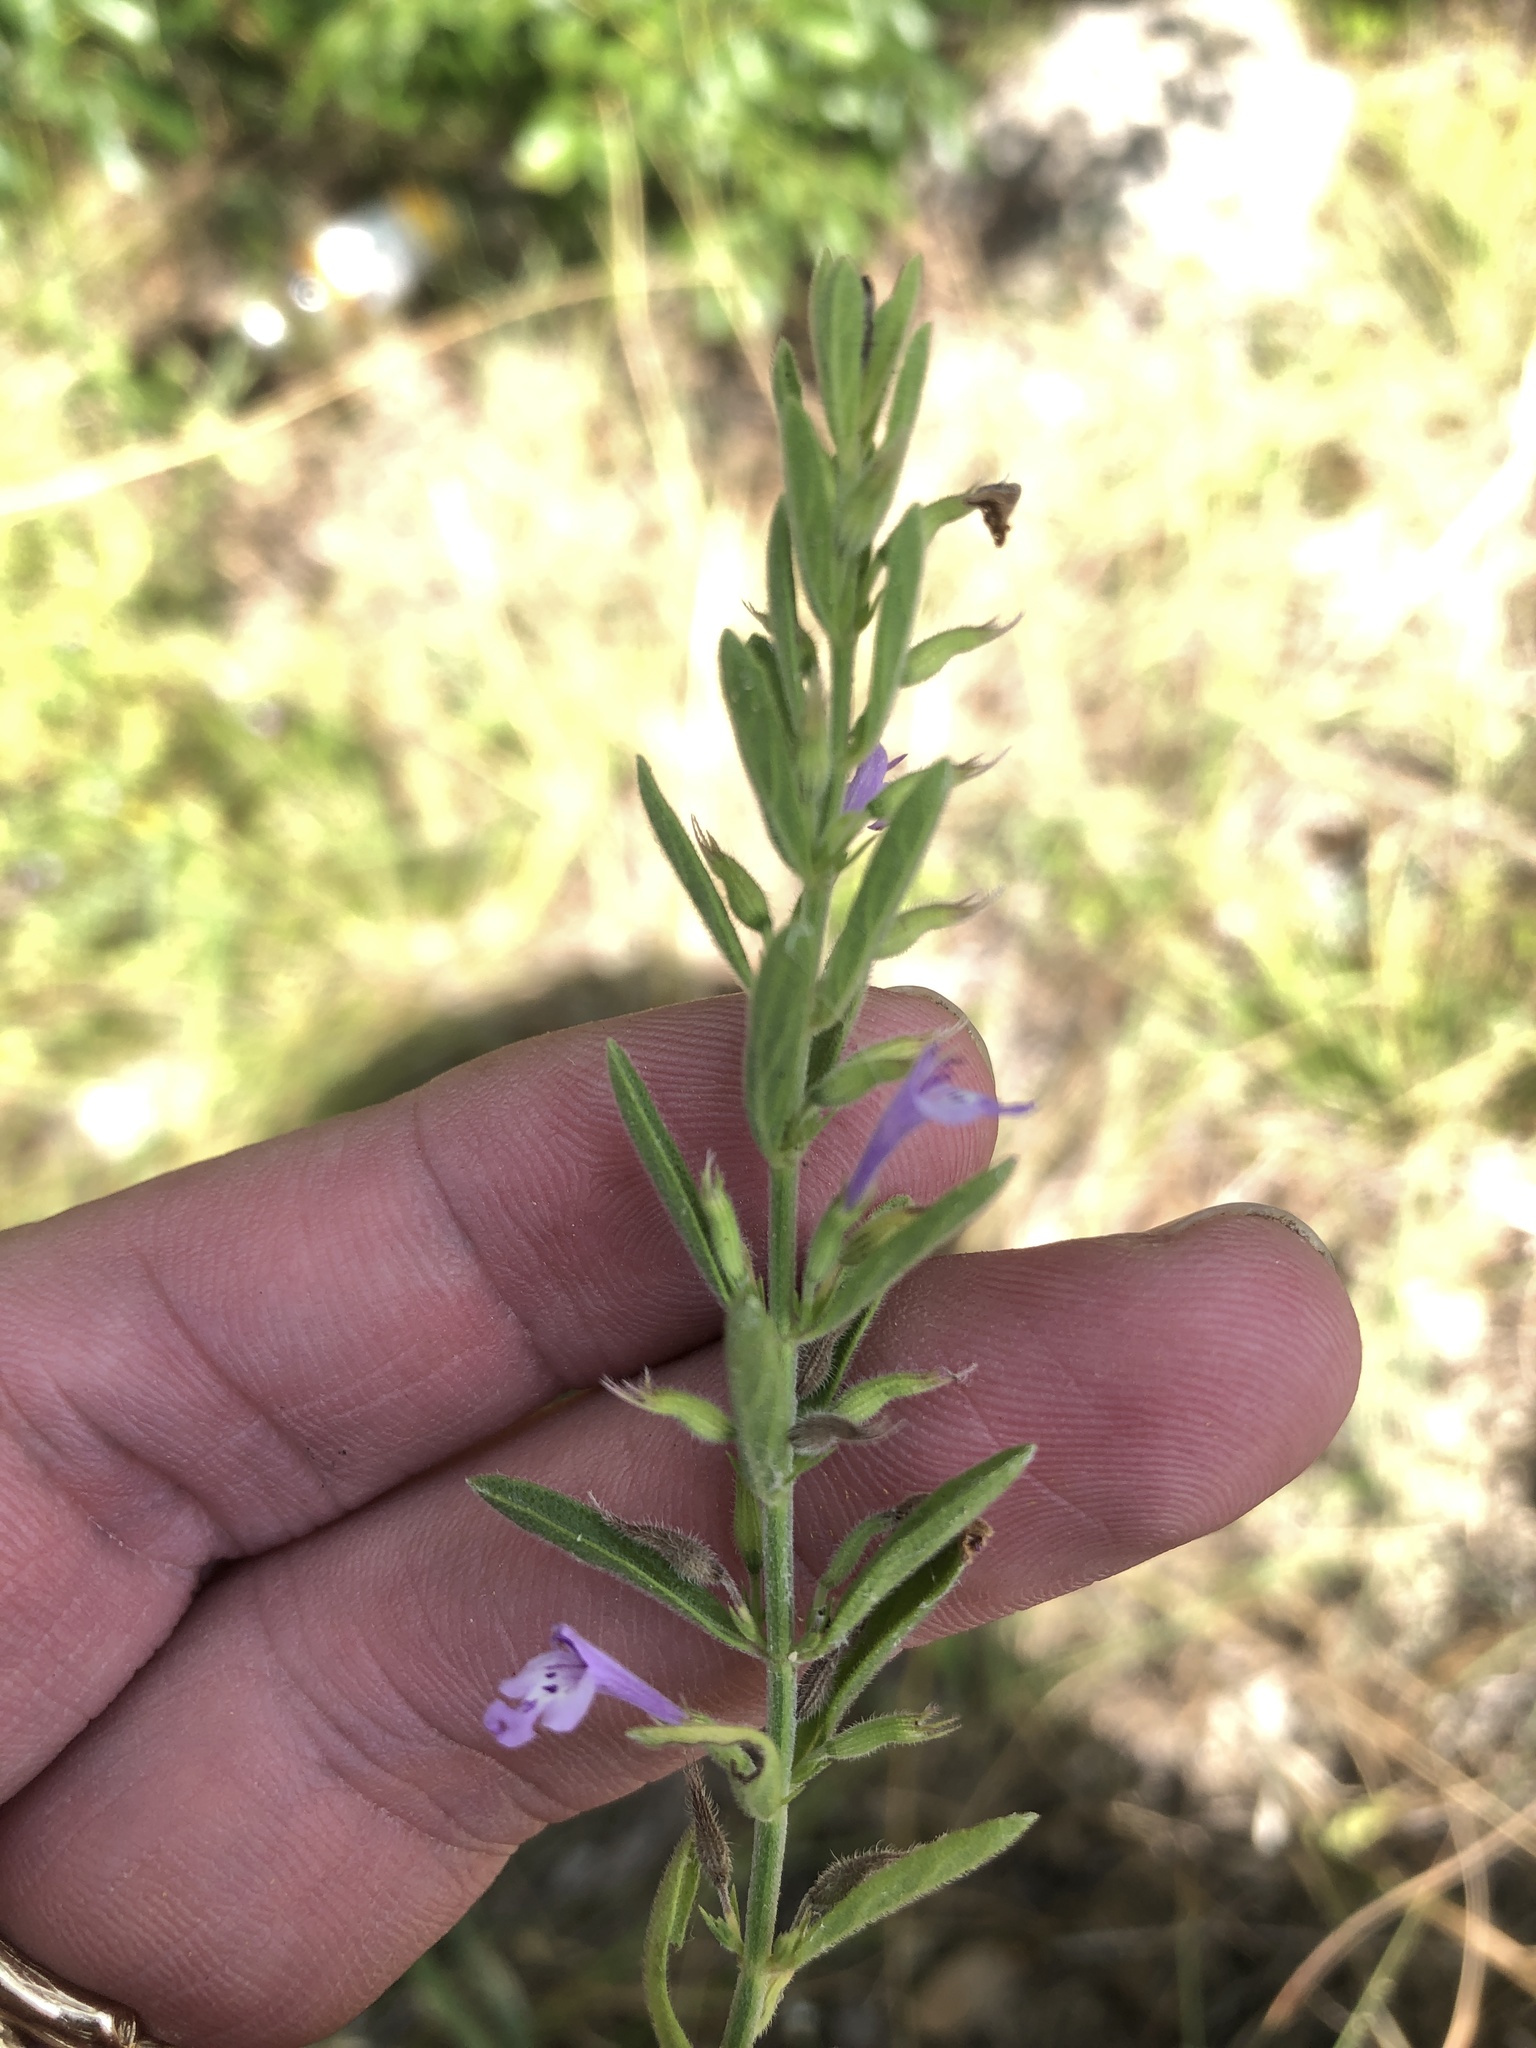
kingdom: Plantae
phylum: Tracheophyta
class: Magnoliopsida
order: Lamiales
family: Lamiaceae
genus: Hedeoma
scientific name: Hedeoma reverchonii
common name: Reverchon's false penny-royal
